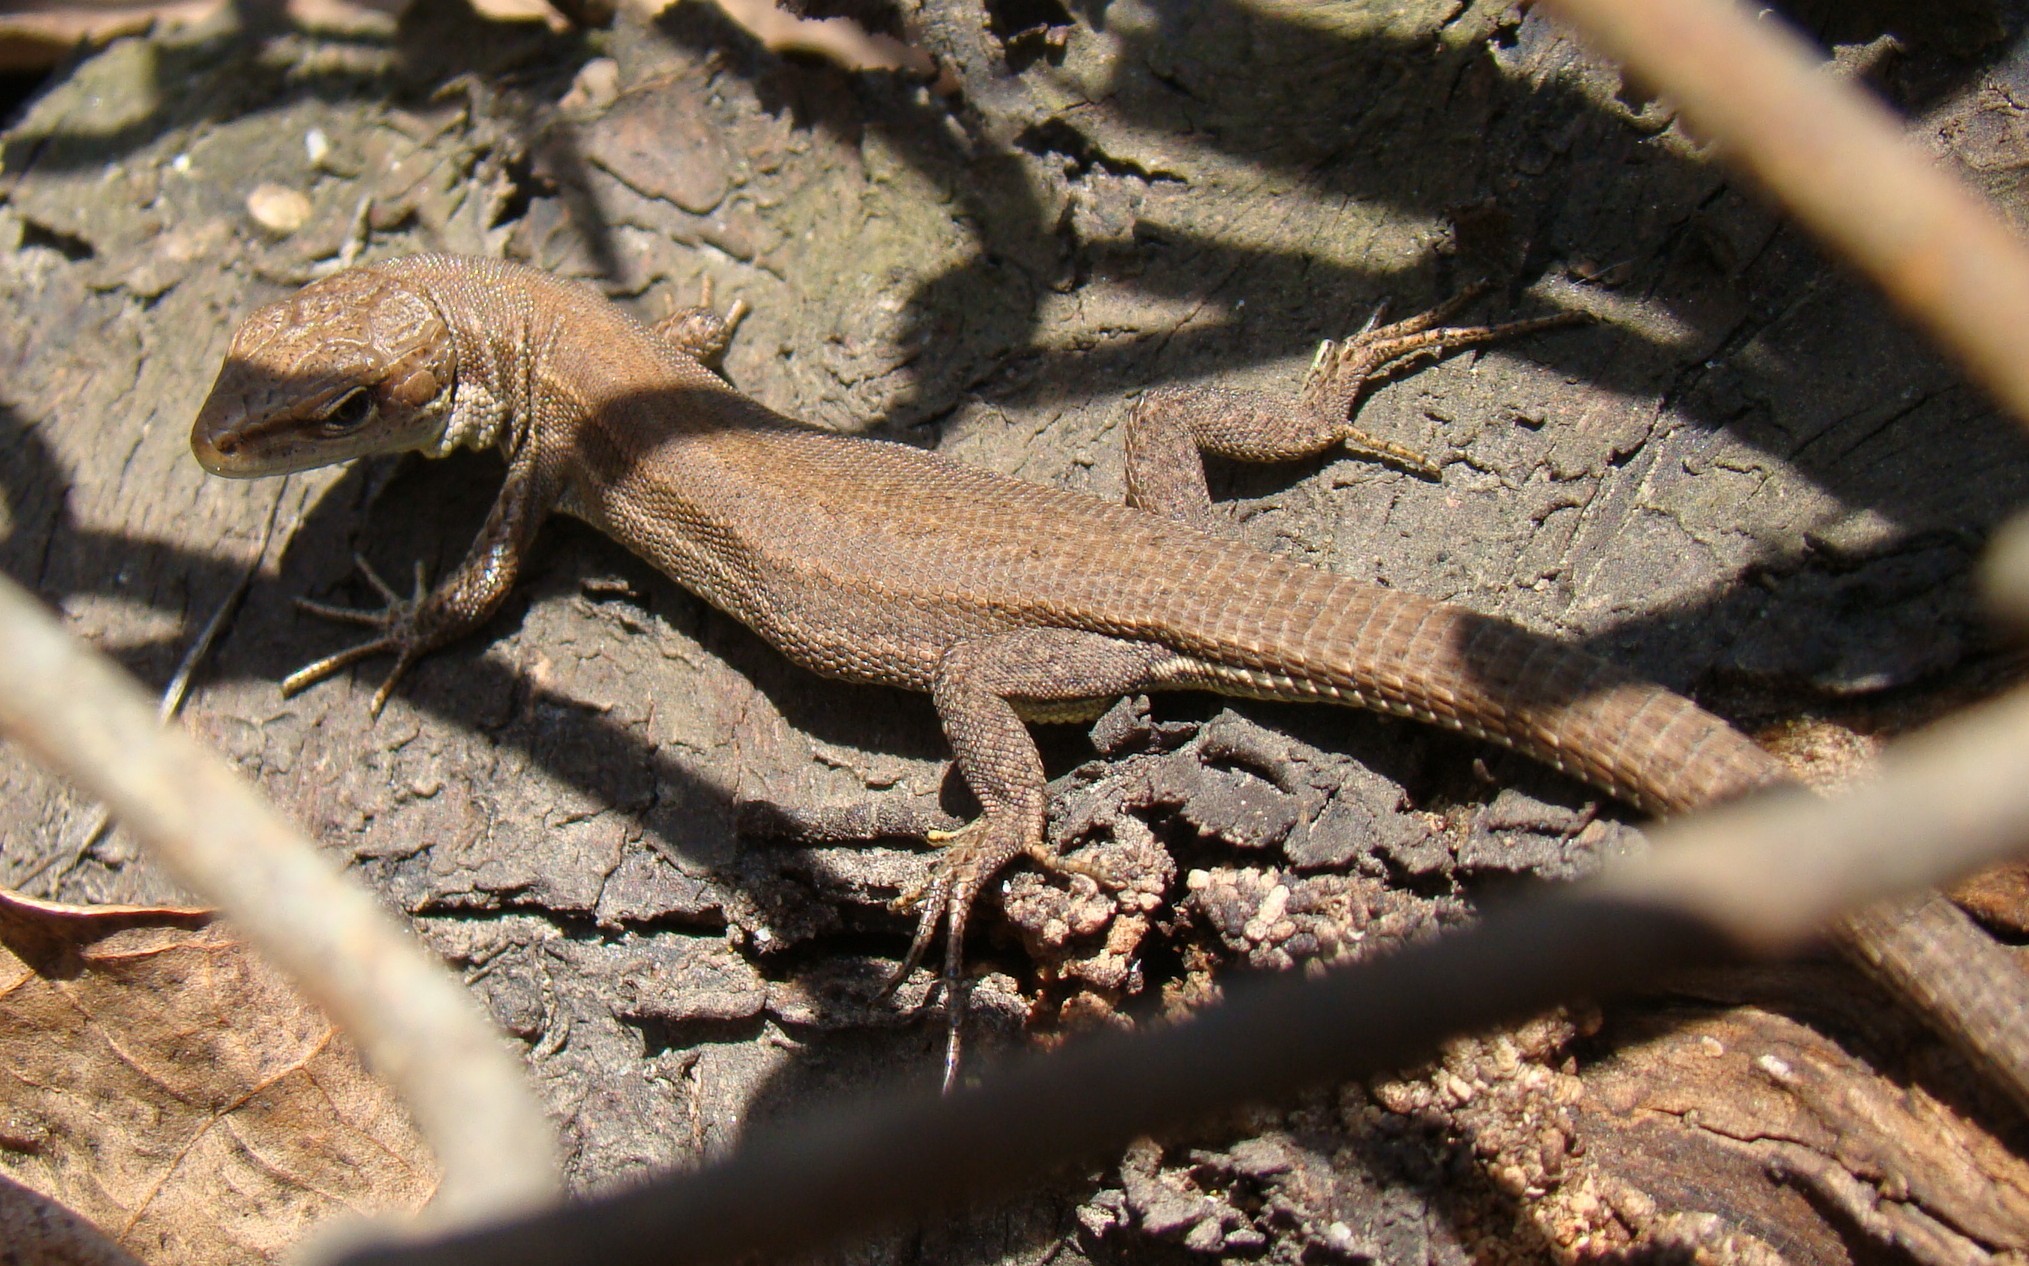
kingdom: Animalia
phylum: Chordata
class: Squamata
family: Lacertidae
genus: Darevskia
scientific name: Darevskia praticola
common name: Meadow lizard
